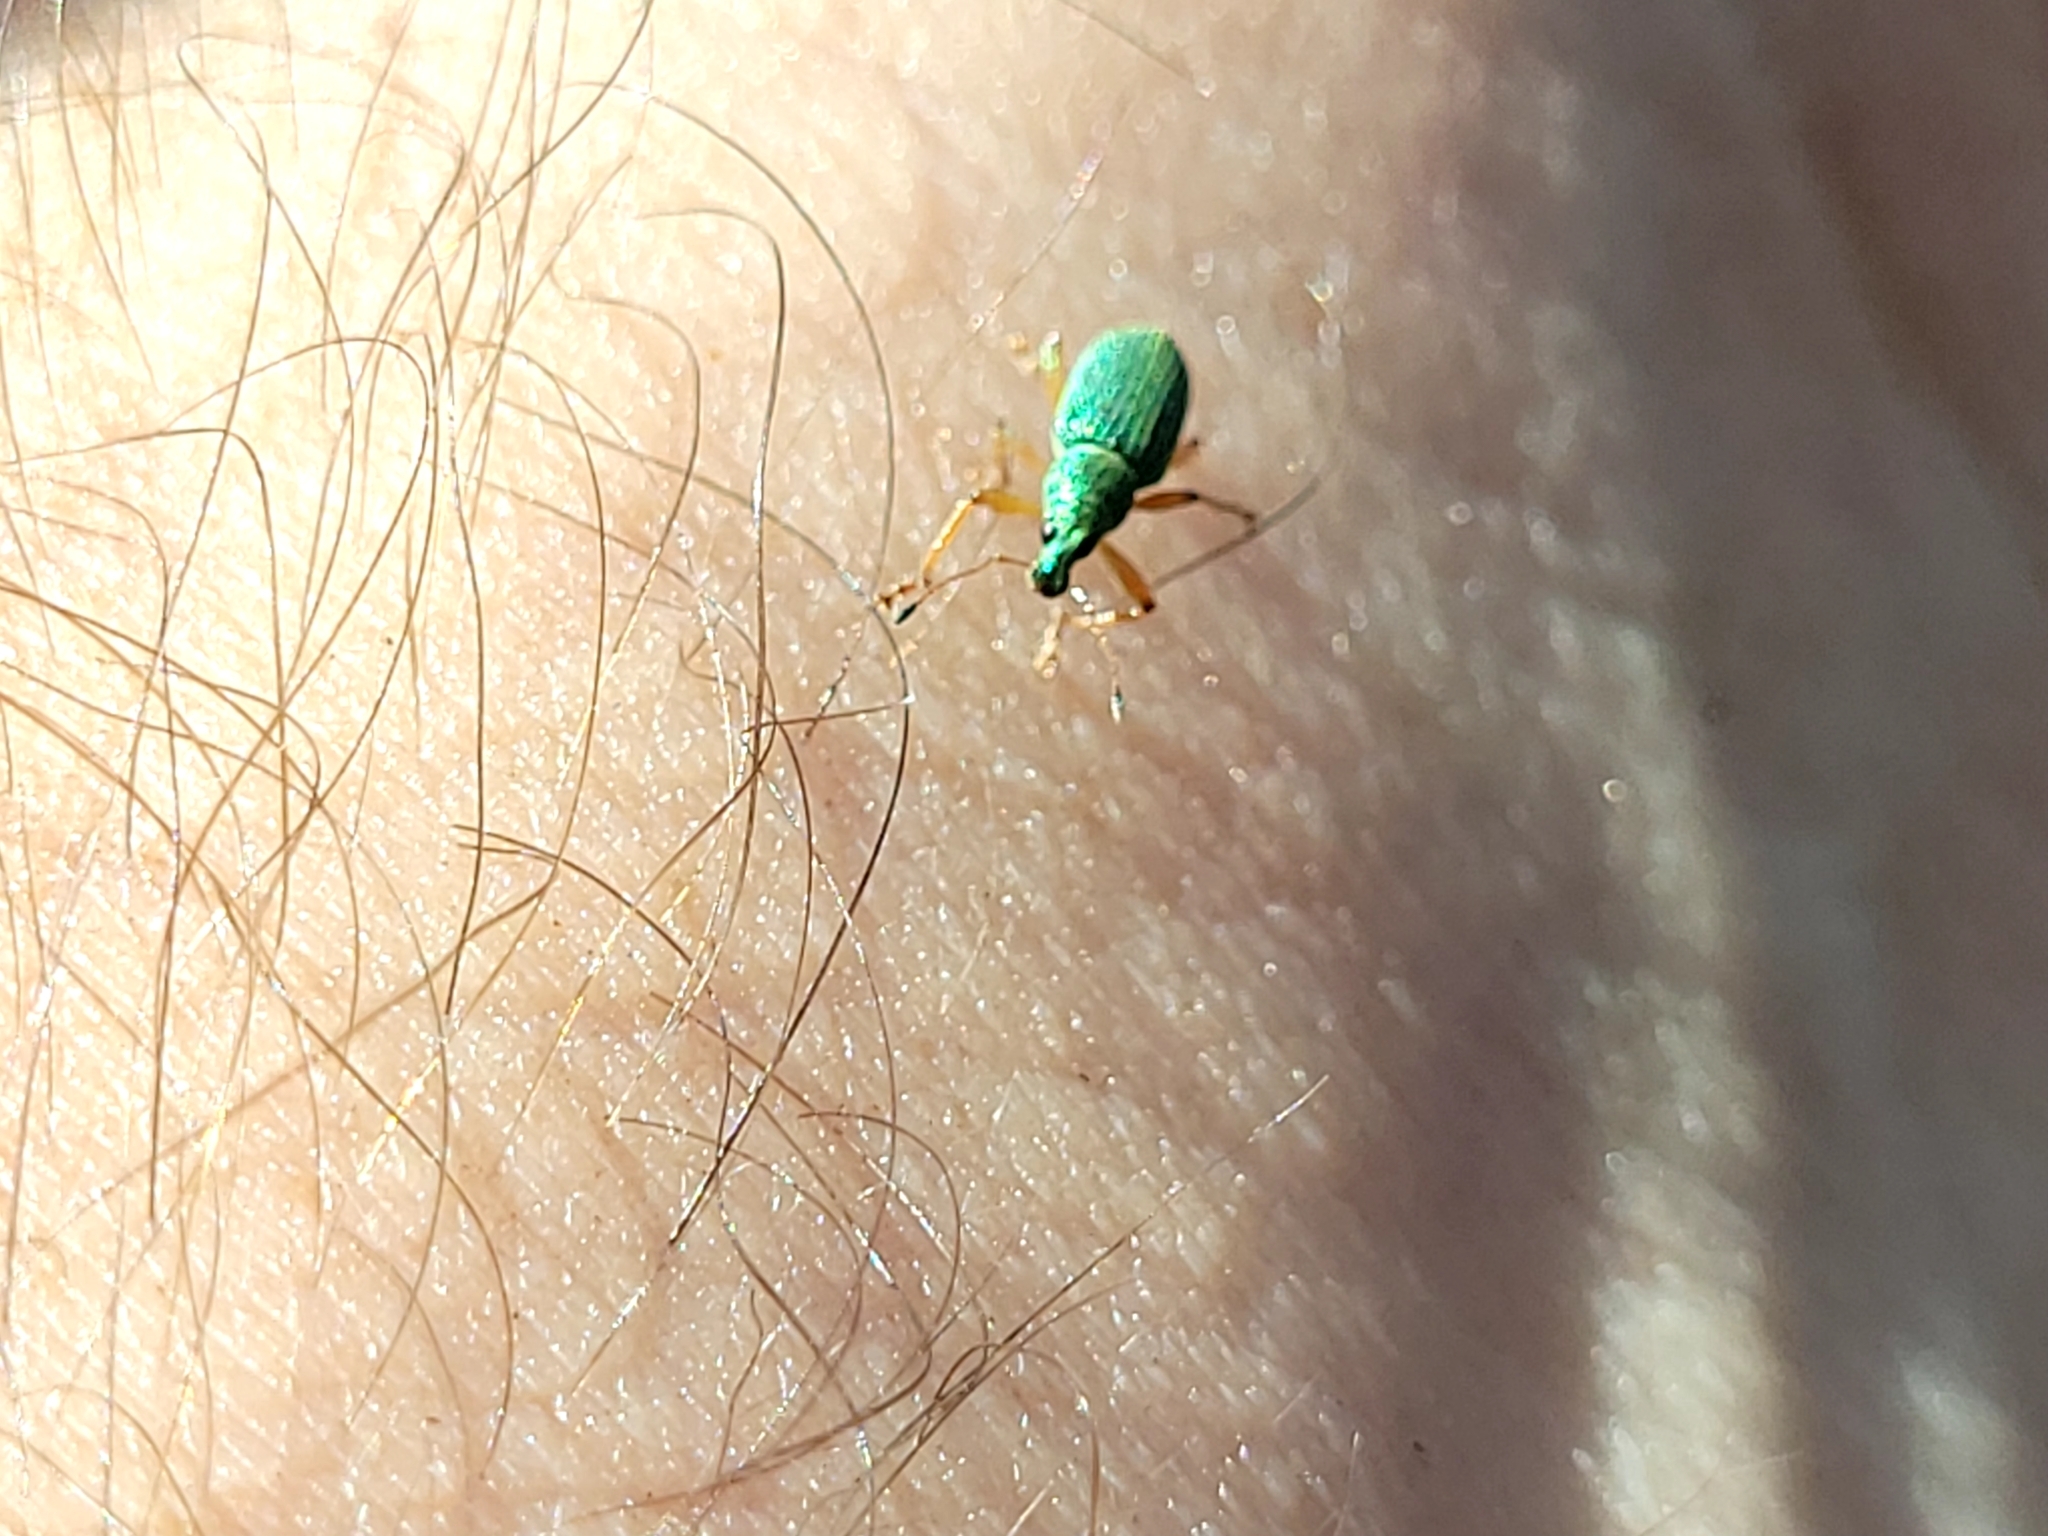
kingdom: Animalia
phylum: Arthropoda
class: Insecta
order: Coleoptera
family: Curculionidae
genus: Polydrusus
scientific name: Polydrusus formosus
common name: Weevil
